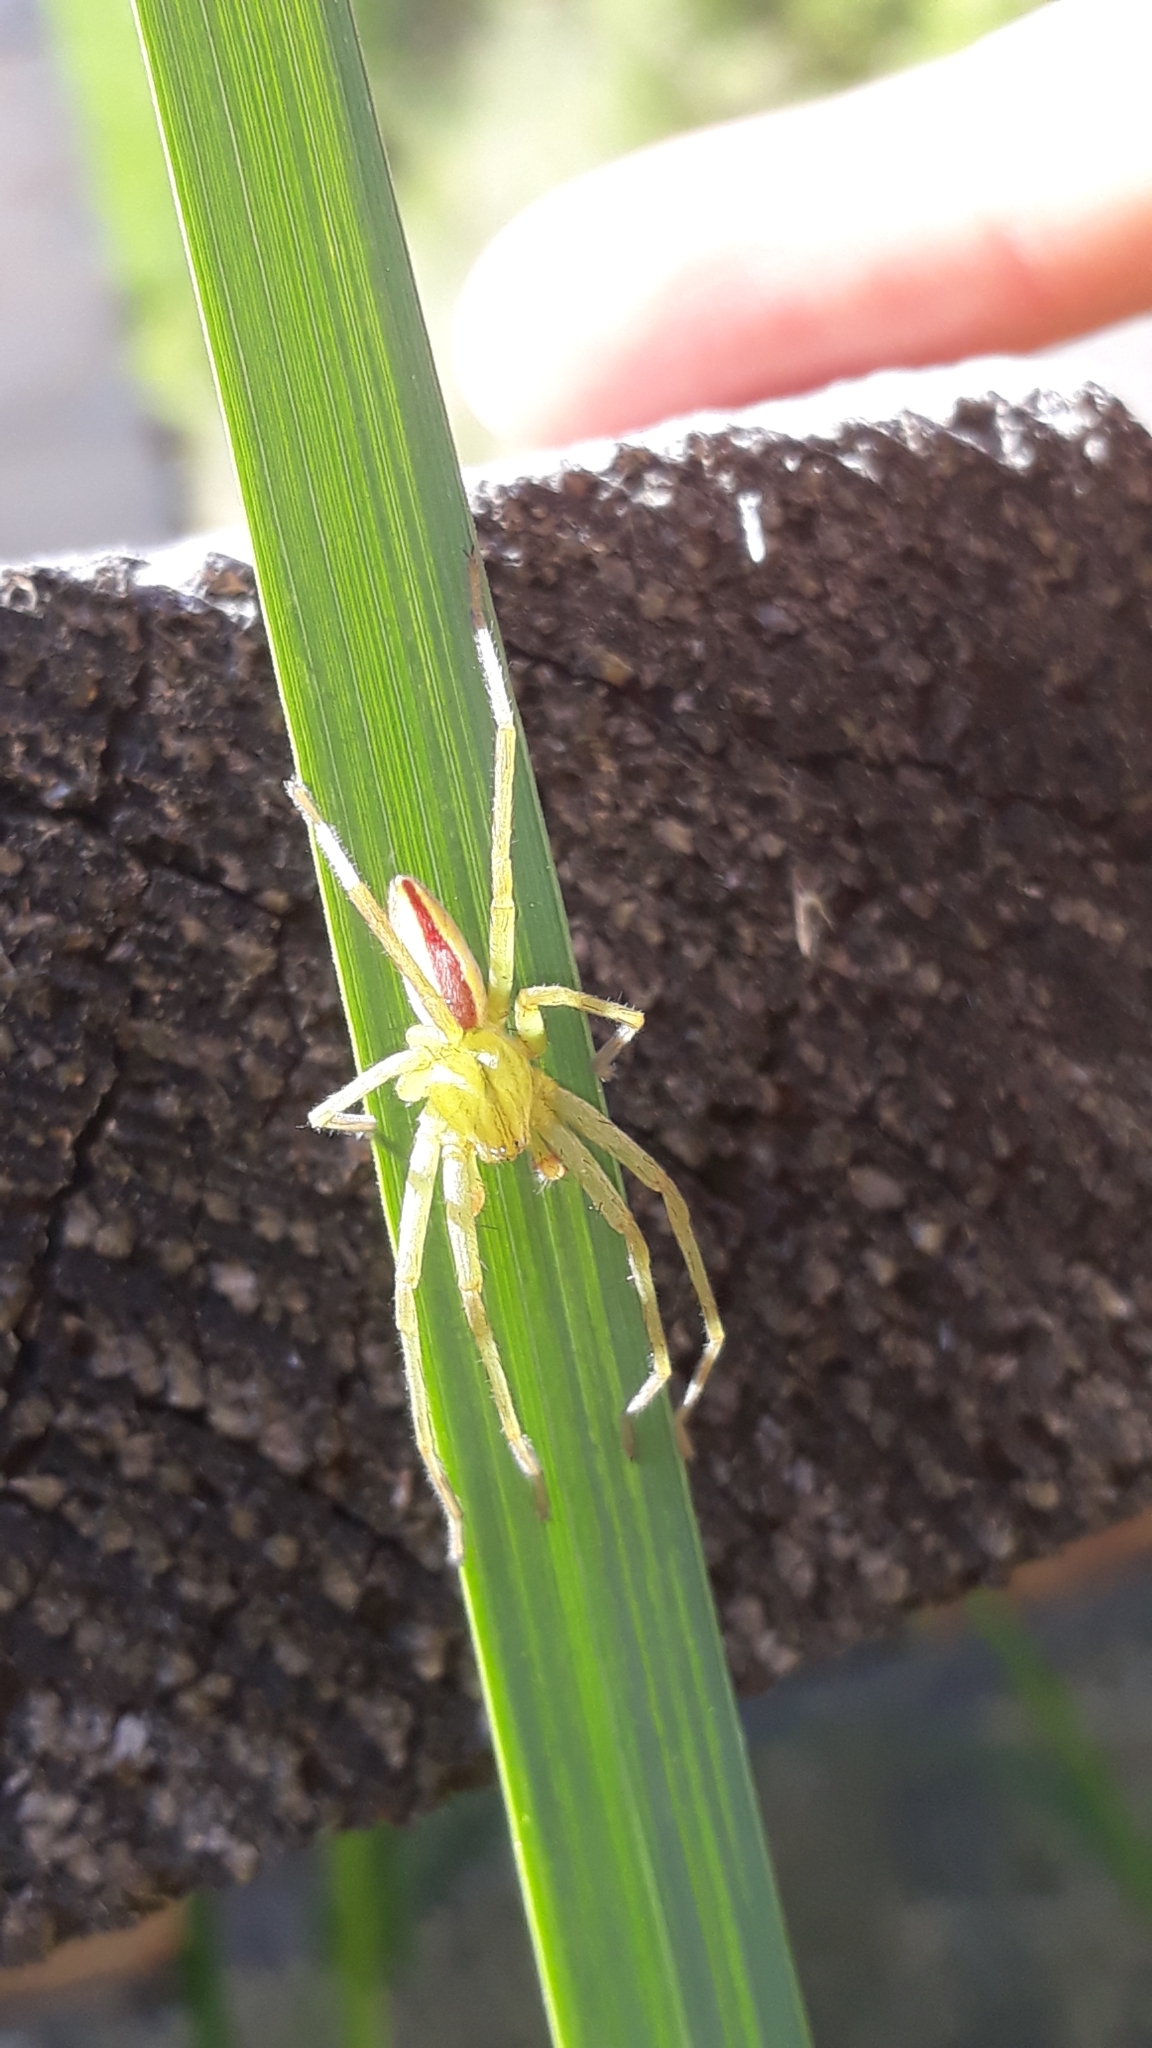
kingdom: Animalia
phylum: Arthropoda
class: Arachnida
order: Araneae
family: Sparassidae
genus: Micrommata
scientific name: Micrommata virescens
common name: Green spider
